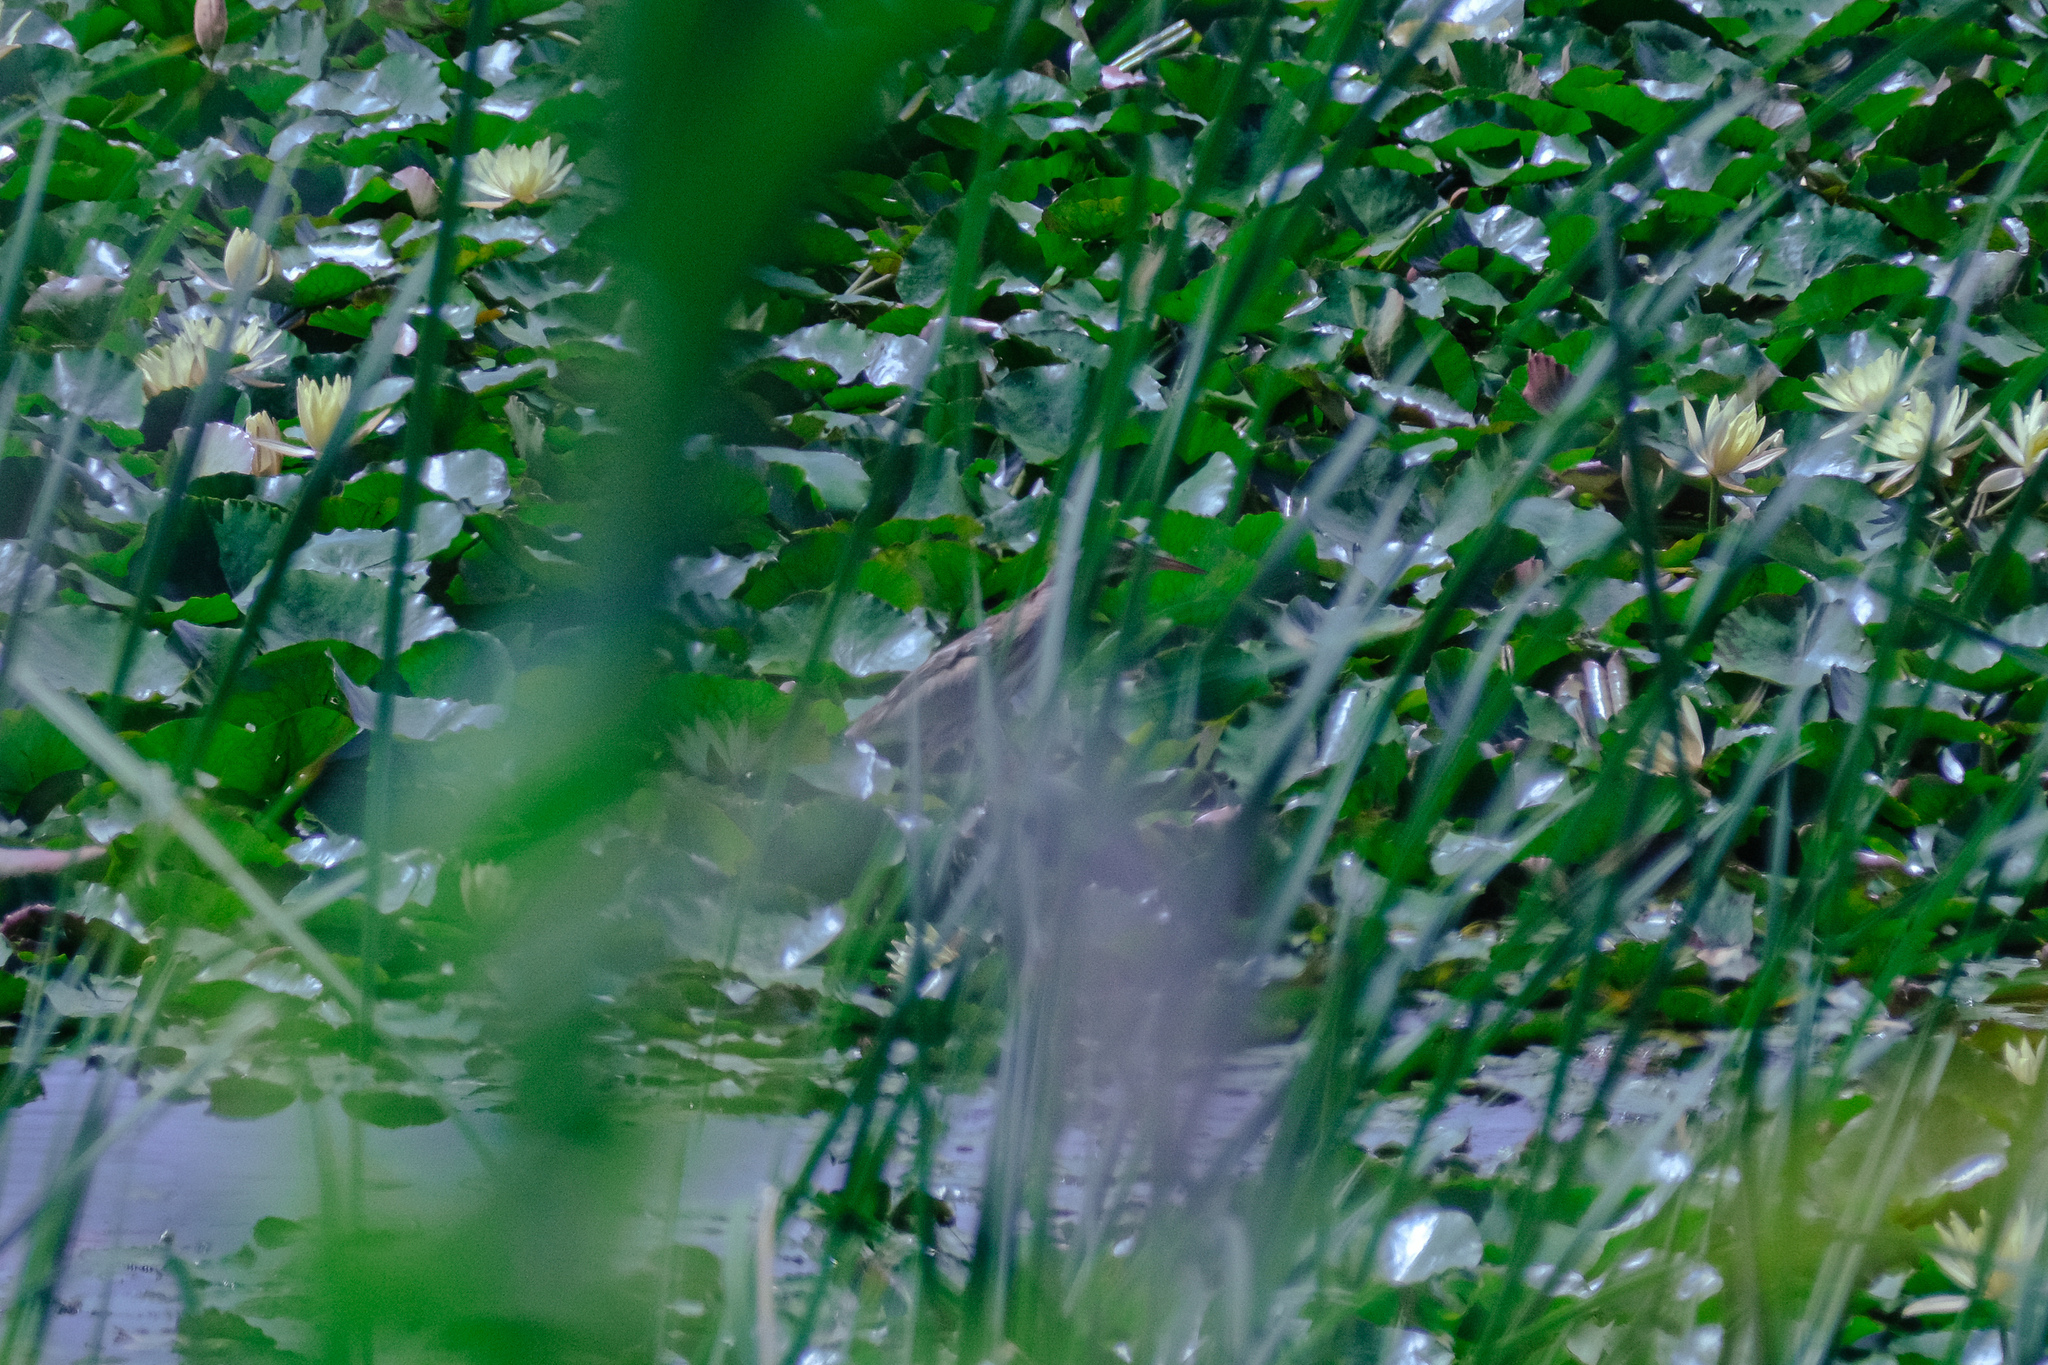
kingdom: Animalia
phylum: Chordata
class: Aves
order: Pelecaniformes
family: Ardeidae
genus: Ixobrychus
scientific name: Ixobrychus minutus
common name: Little bittern
